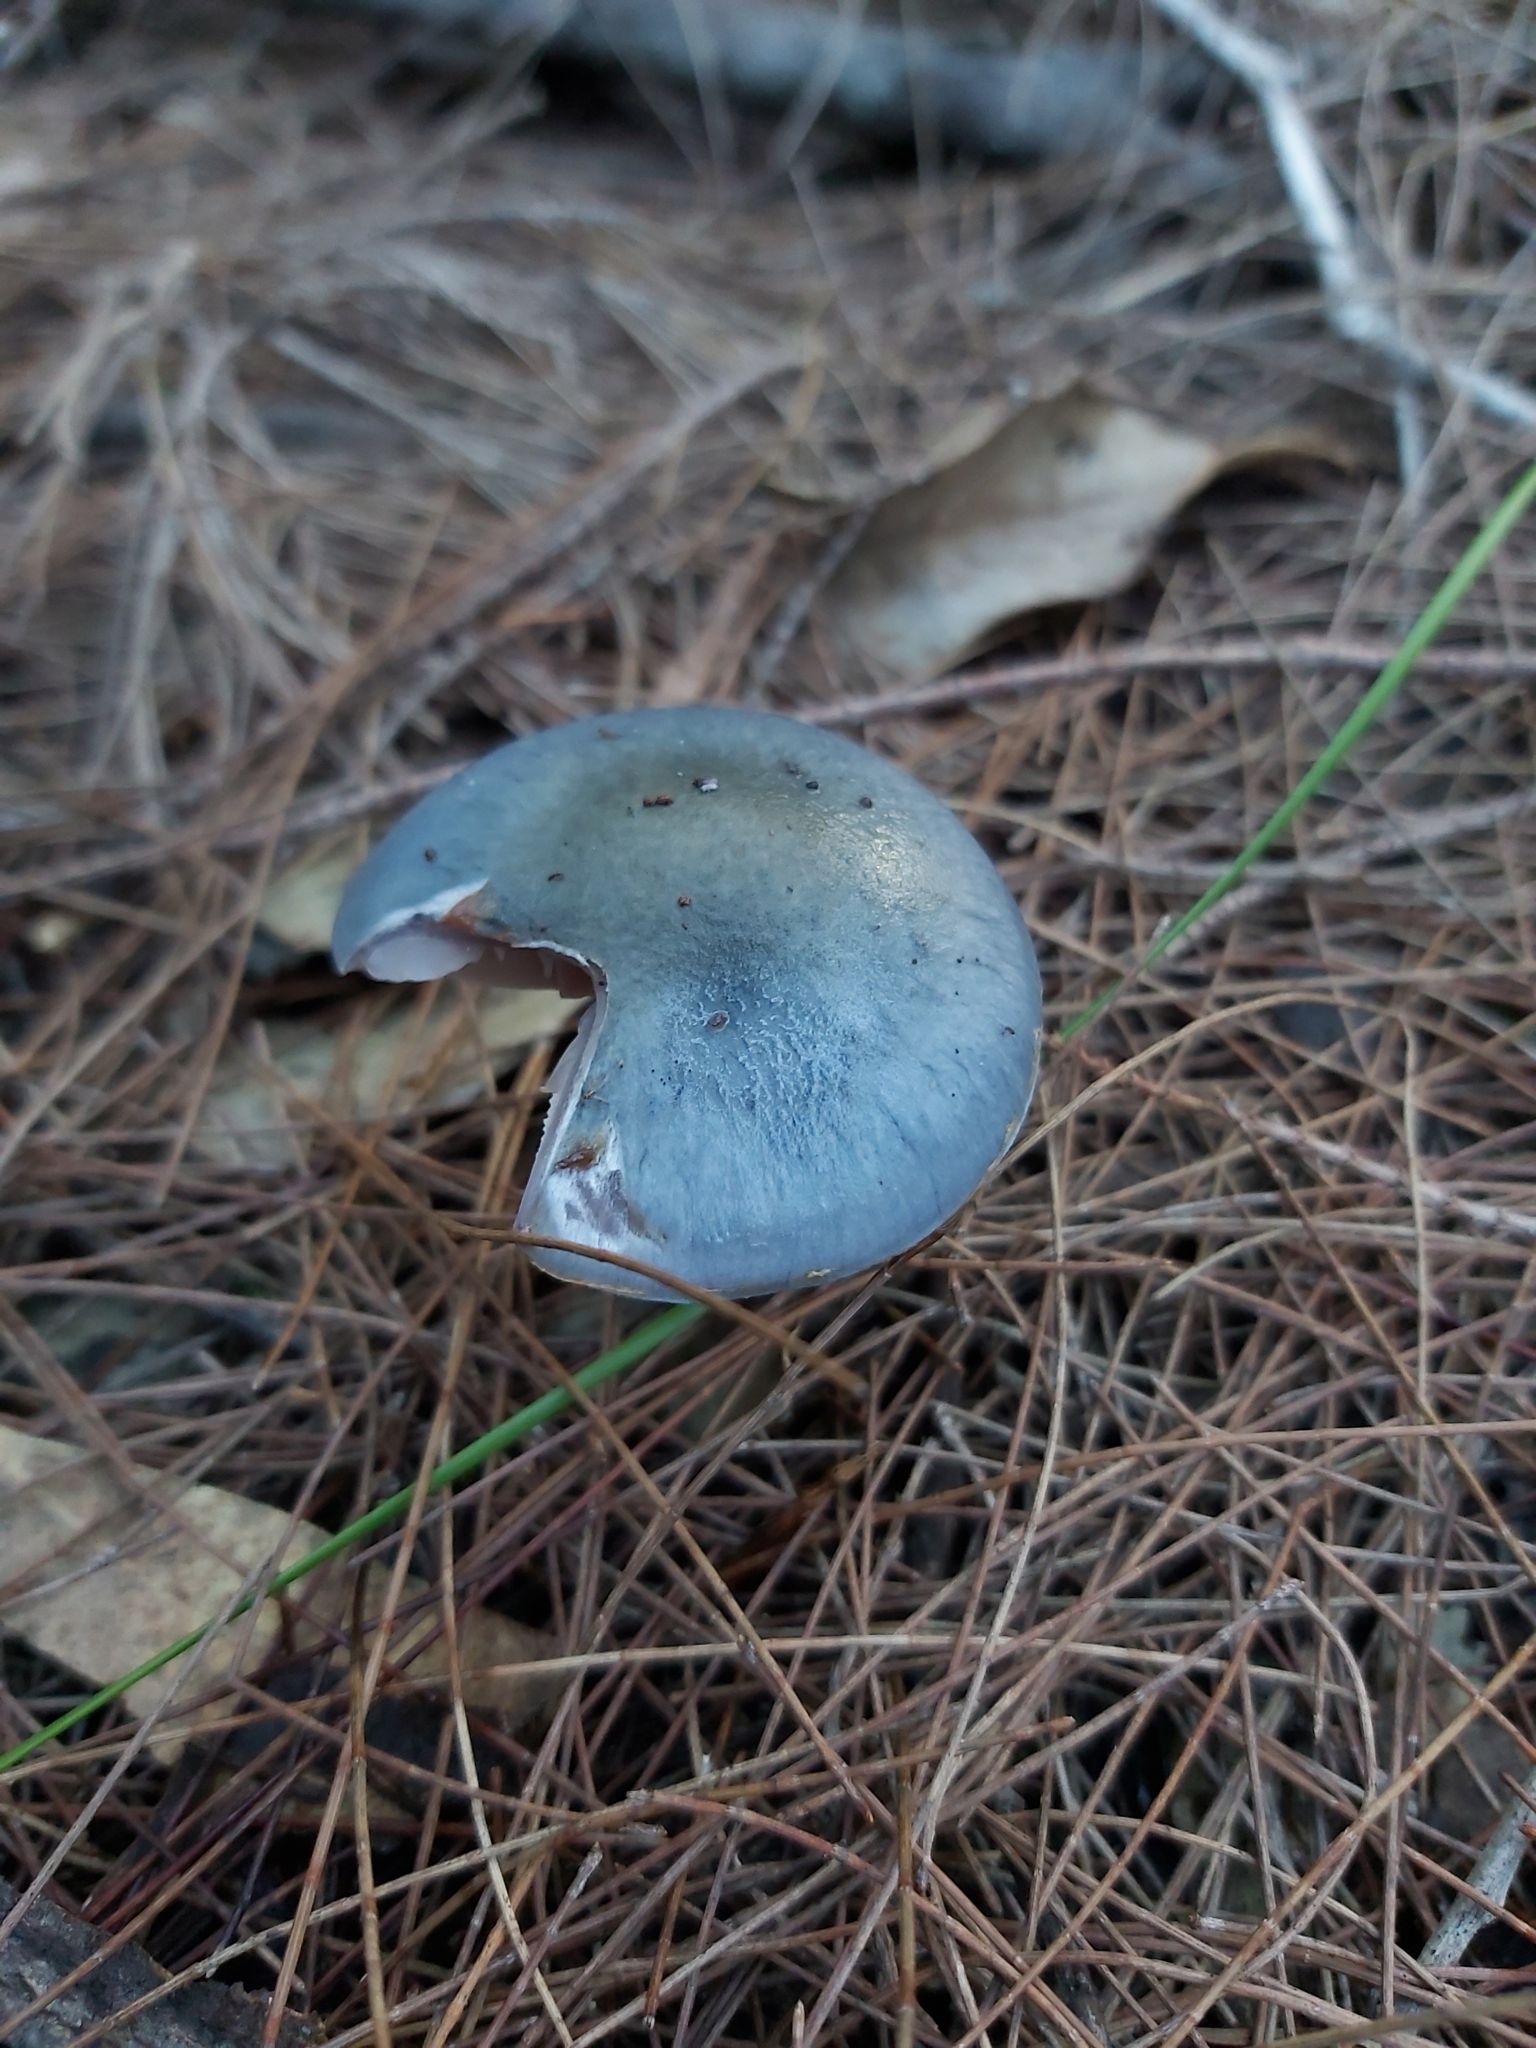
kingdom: Fungi
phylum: Basidiomycota
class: Agaricomycetes
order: Agaricales
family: Cortinariaceae
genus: Cortinarius
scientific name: Cortinarius rotundisporus
